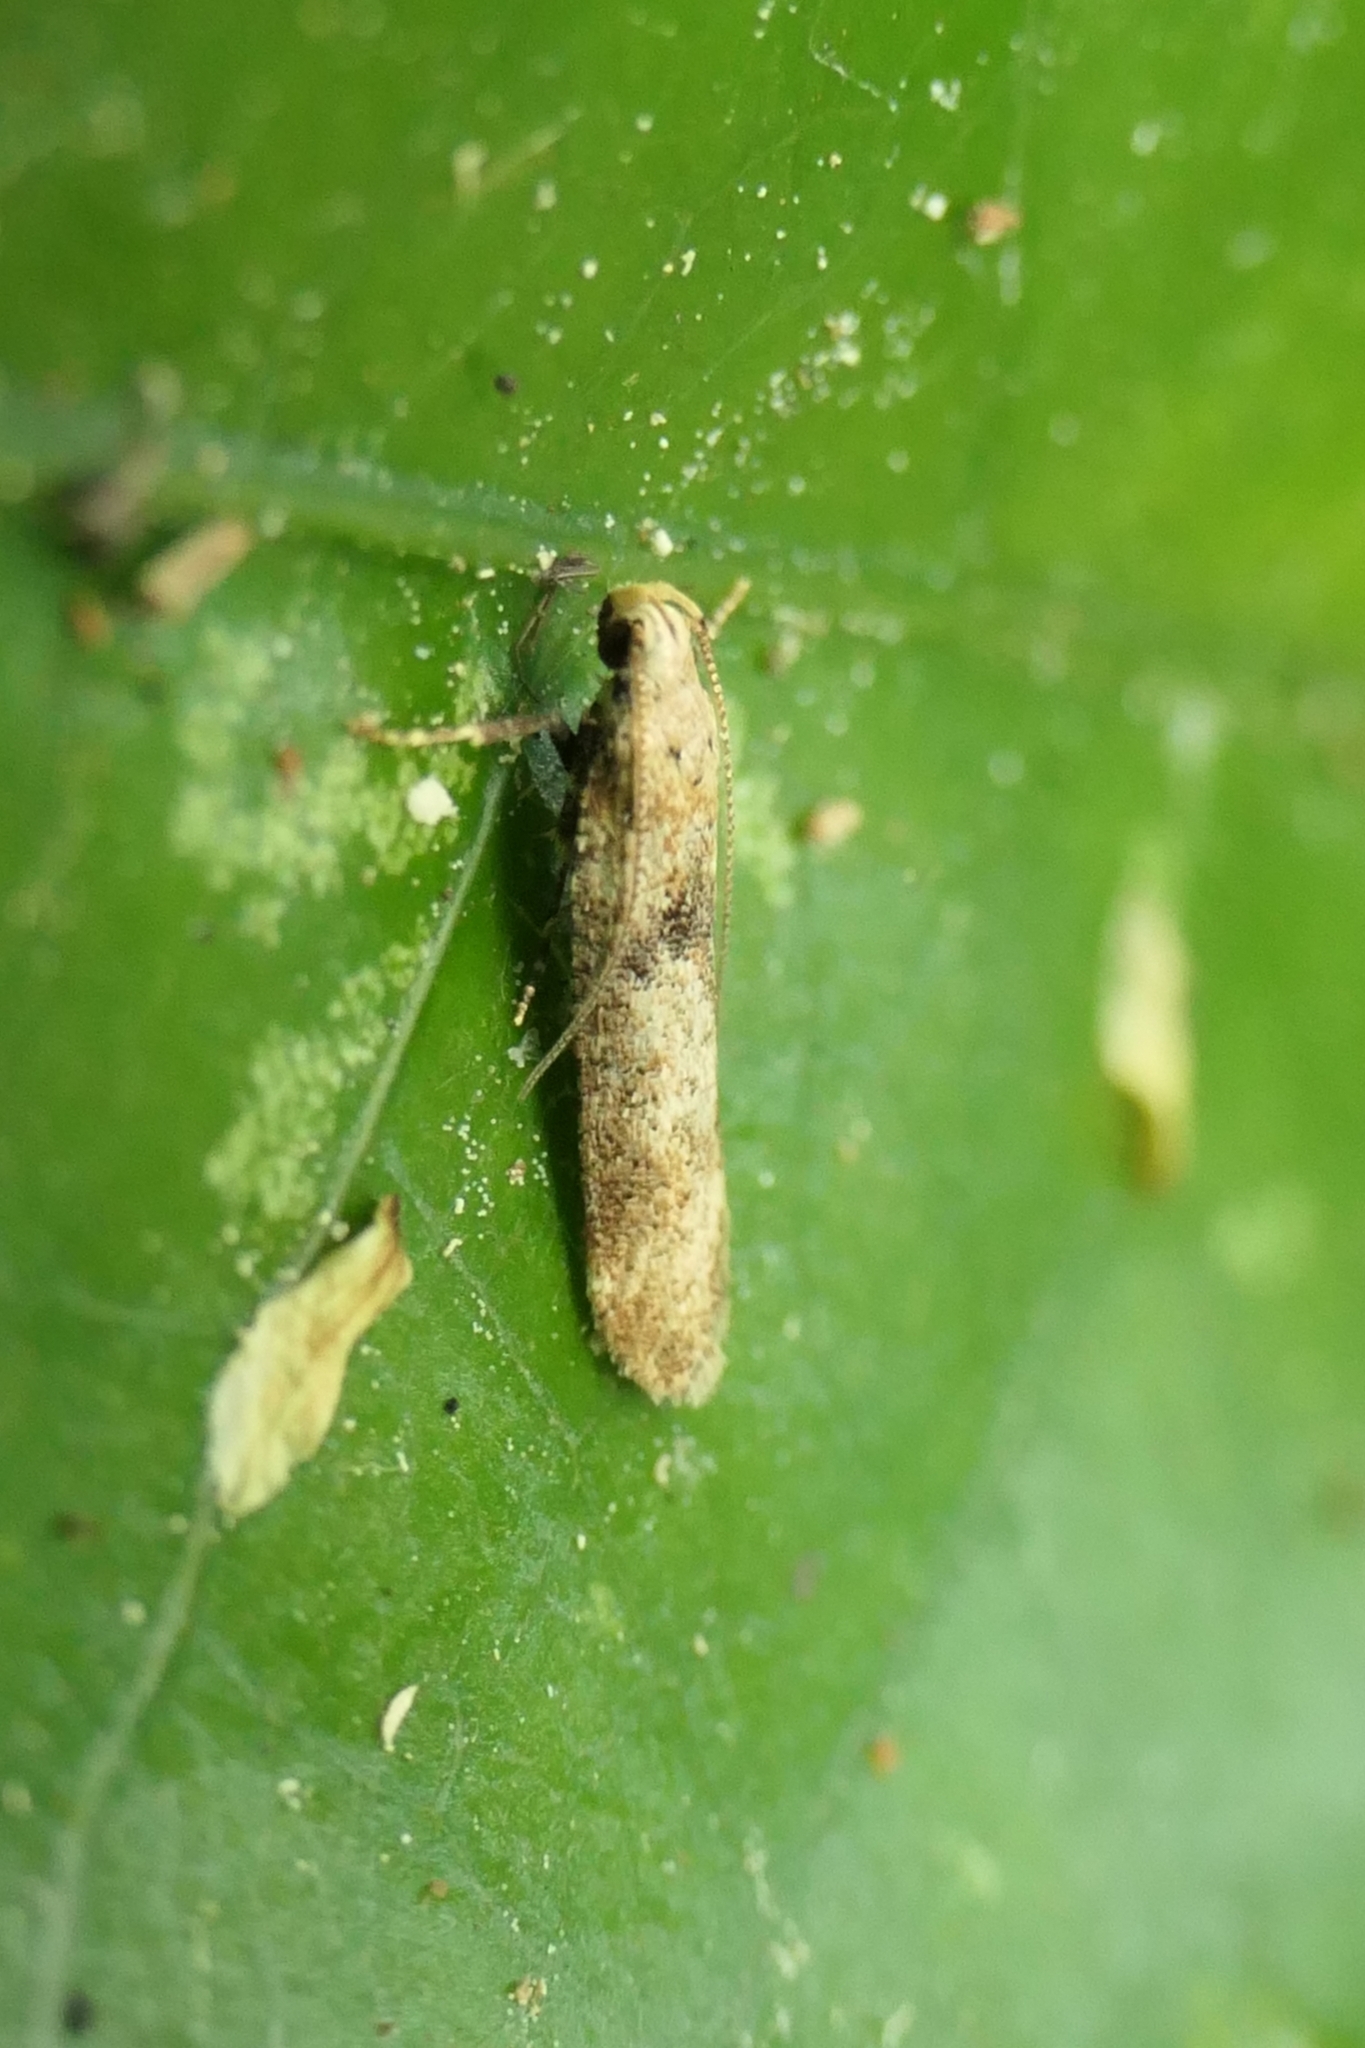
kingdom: Animalia
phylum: Arthropoda
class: Insecta
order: Lepidoptera
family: Gelechiidae
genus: Anisoplaca
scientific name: Anisoplaca acrodactyla
